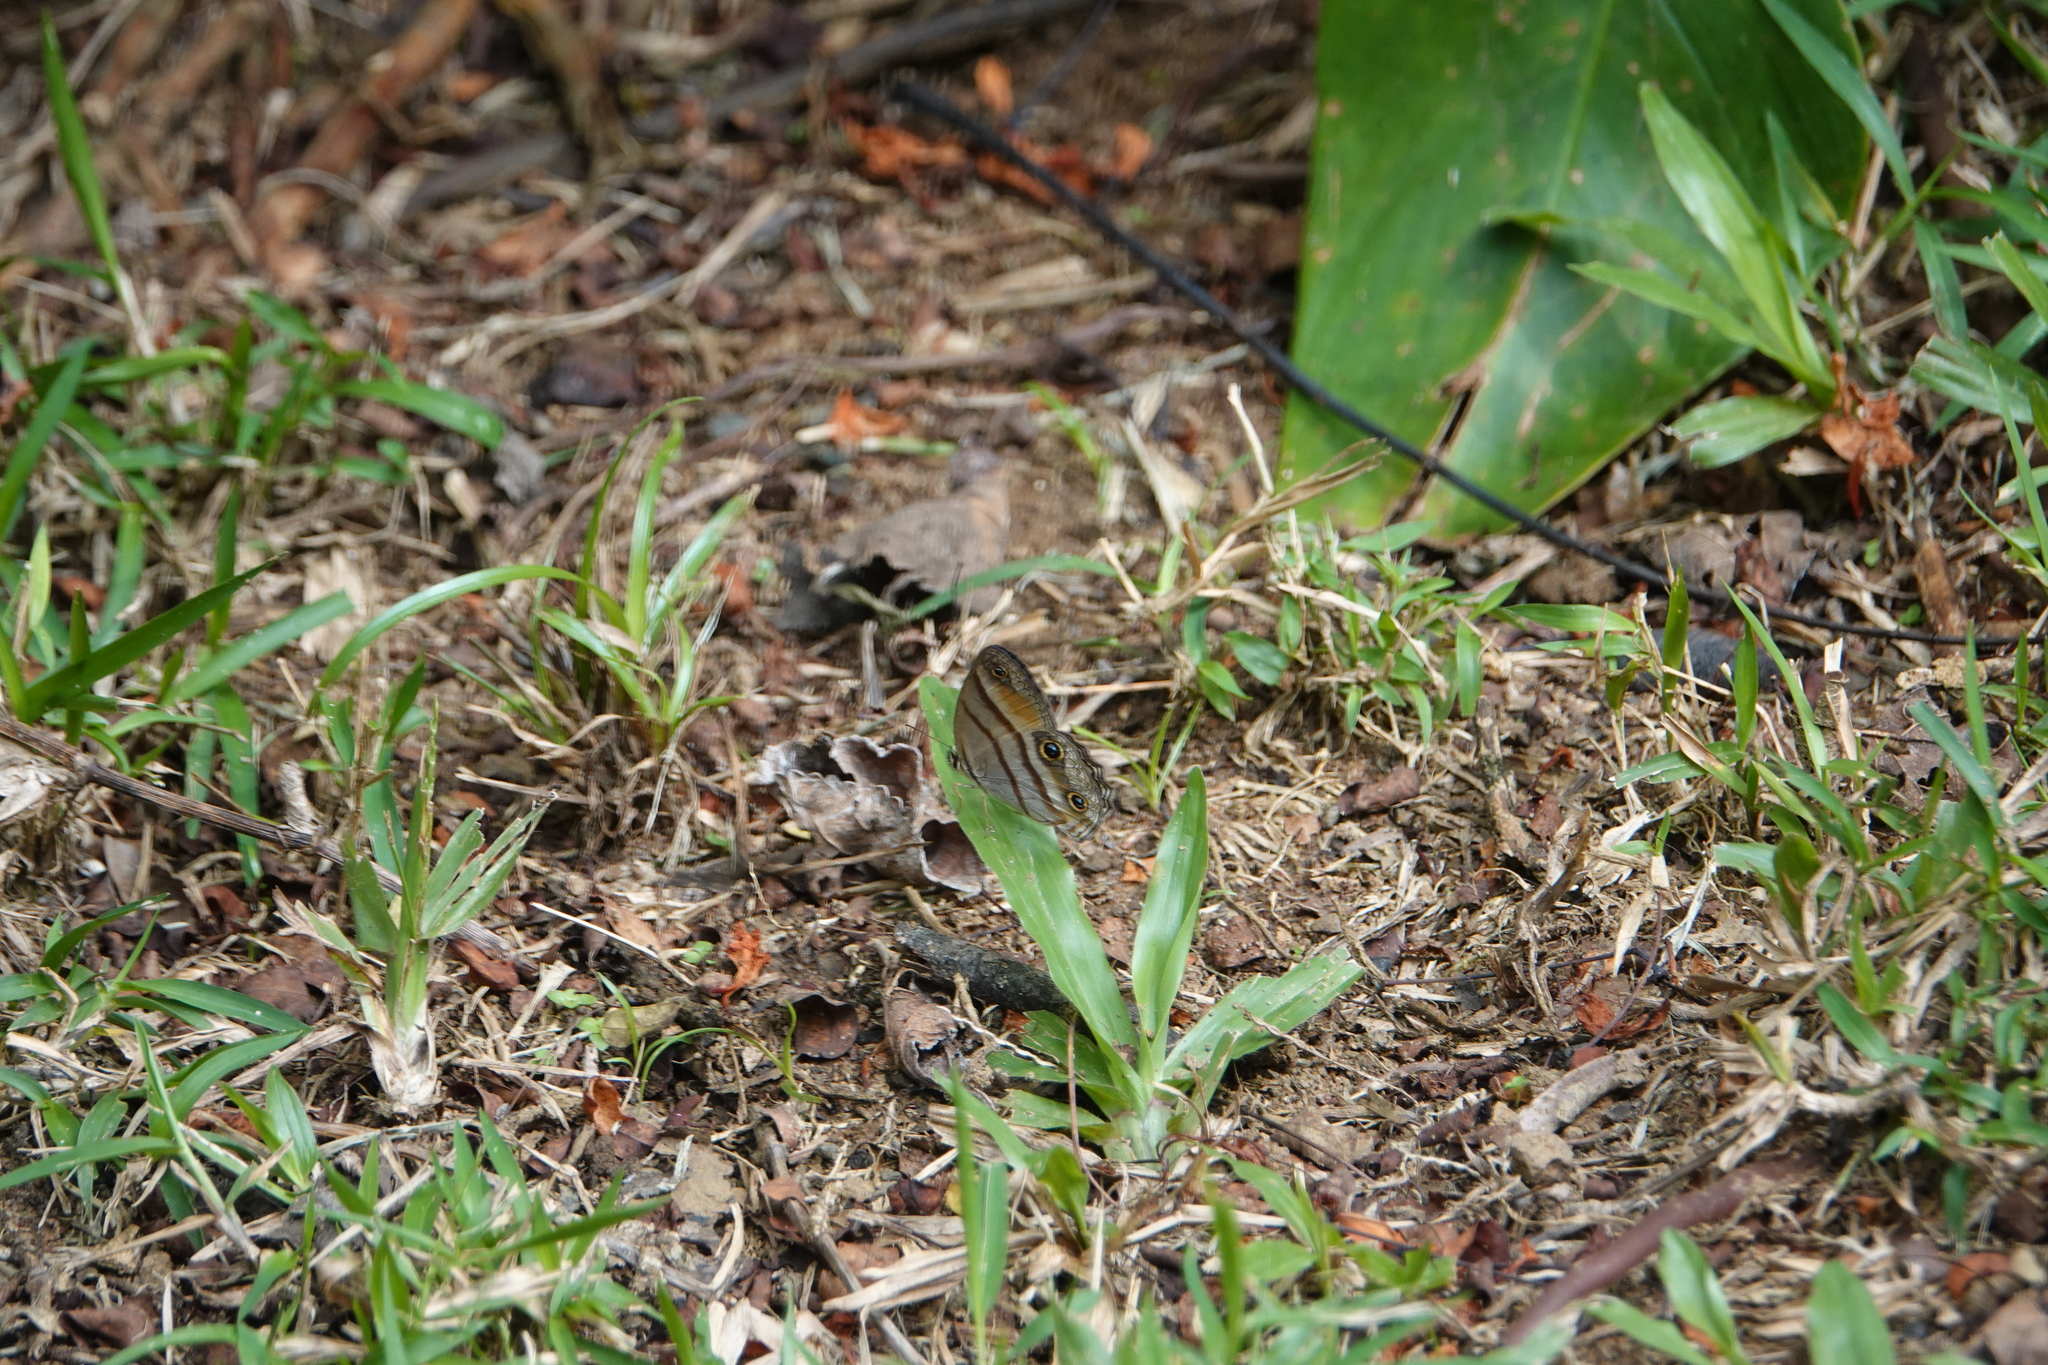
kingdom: Animalia
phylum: Arthropoda
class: Insecta
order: Lepidoptera
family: Nymphalidae
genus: Argyreuptychia
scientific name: Argyreuptychia penelope
